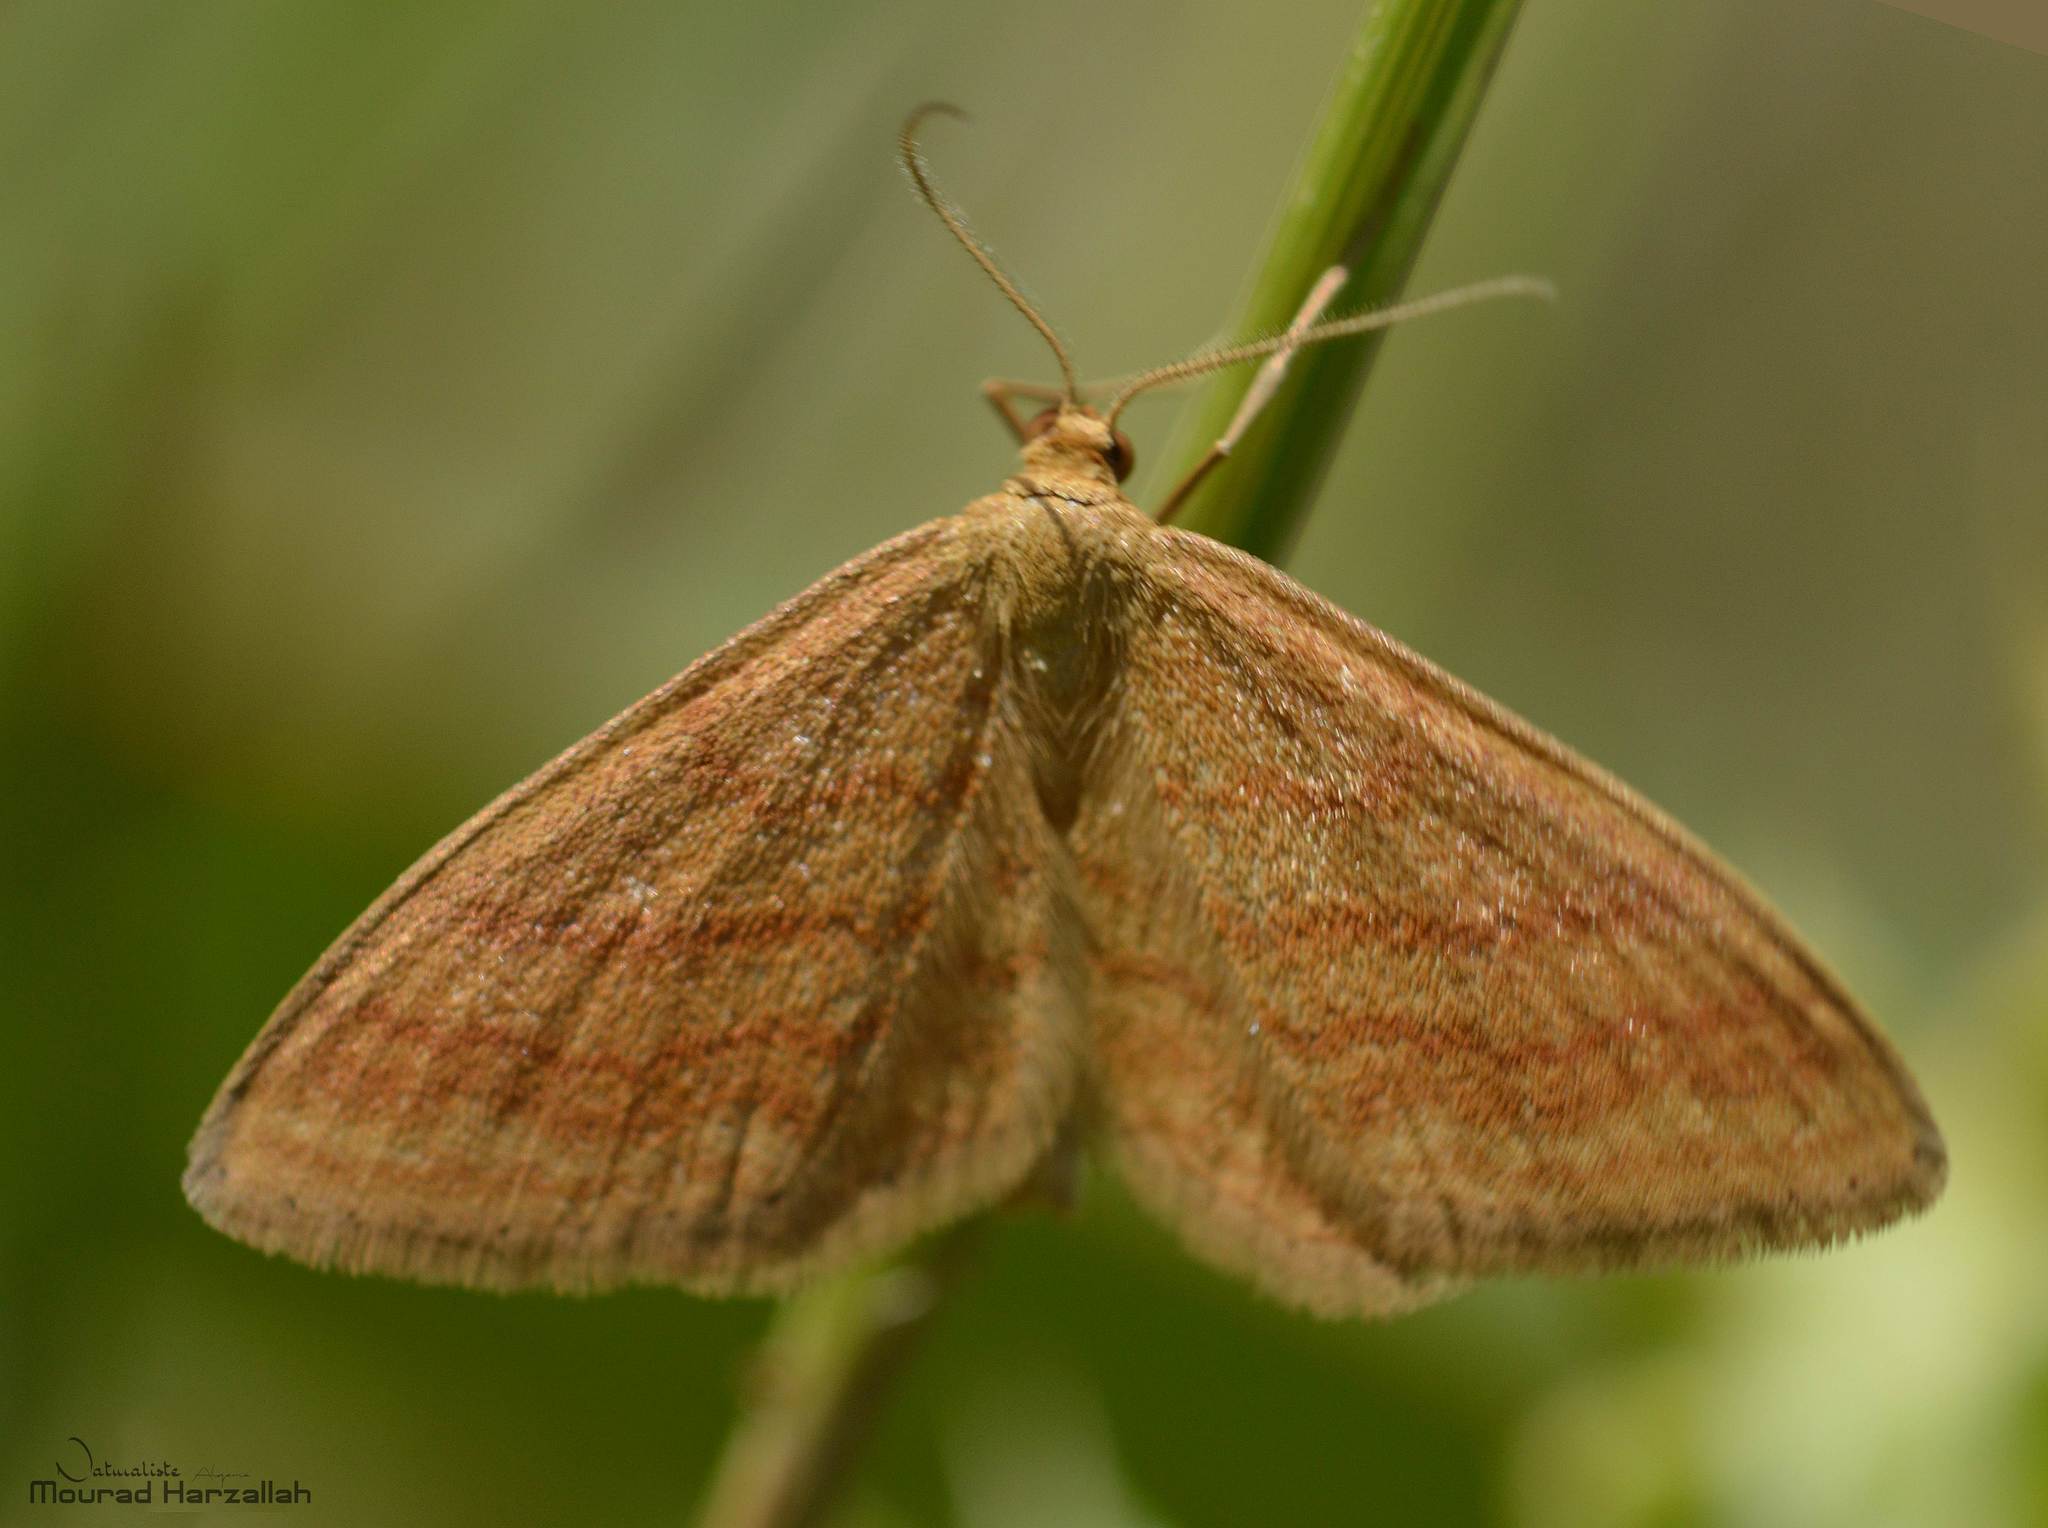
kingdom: Animalia
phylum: Arthropoda
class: Insecta
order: Lepidoptera
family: Geometridae
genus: Idaea
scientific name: Idaea ochrata
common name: Bright wave
